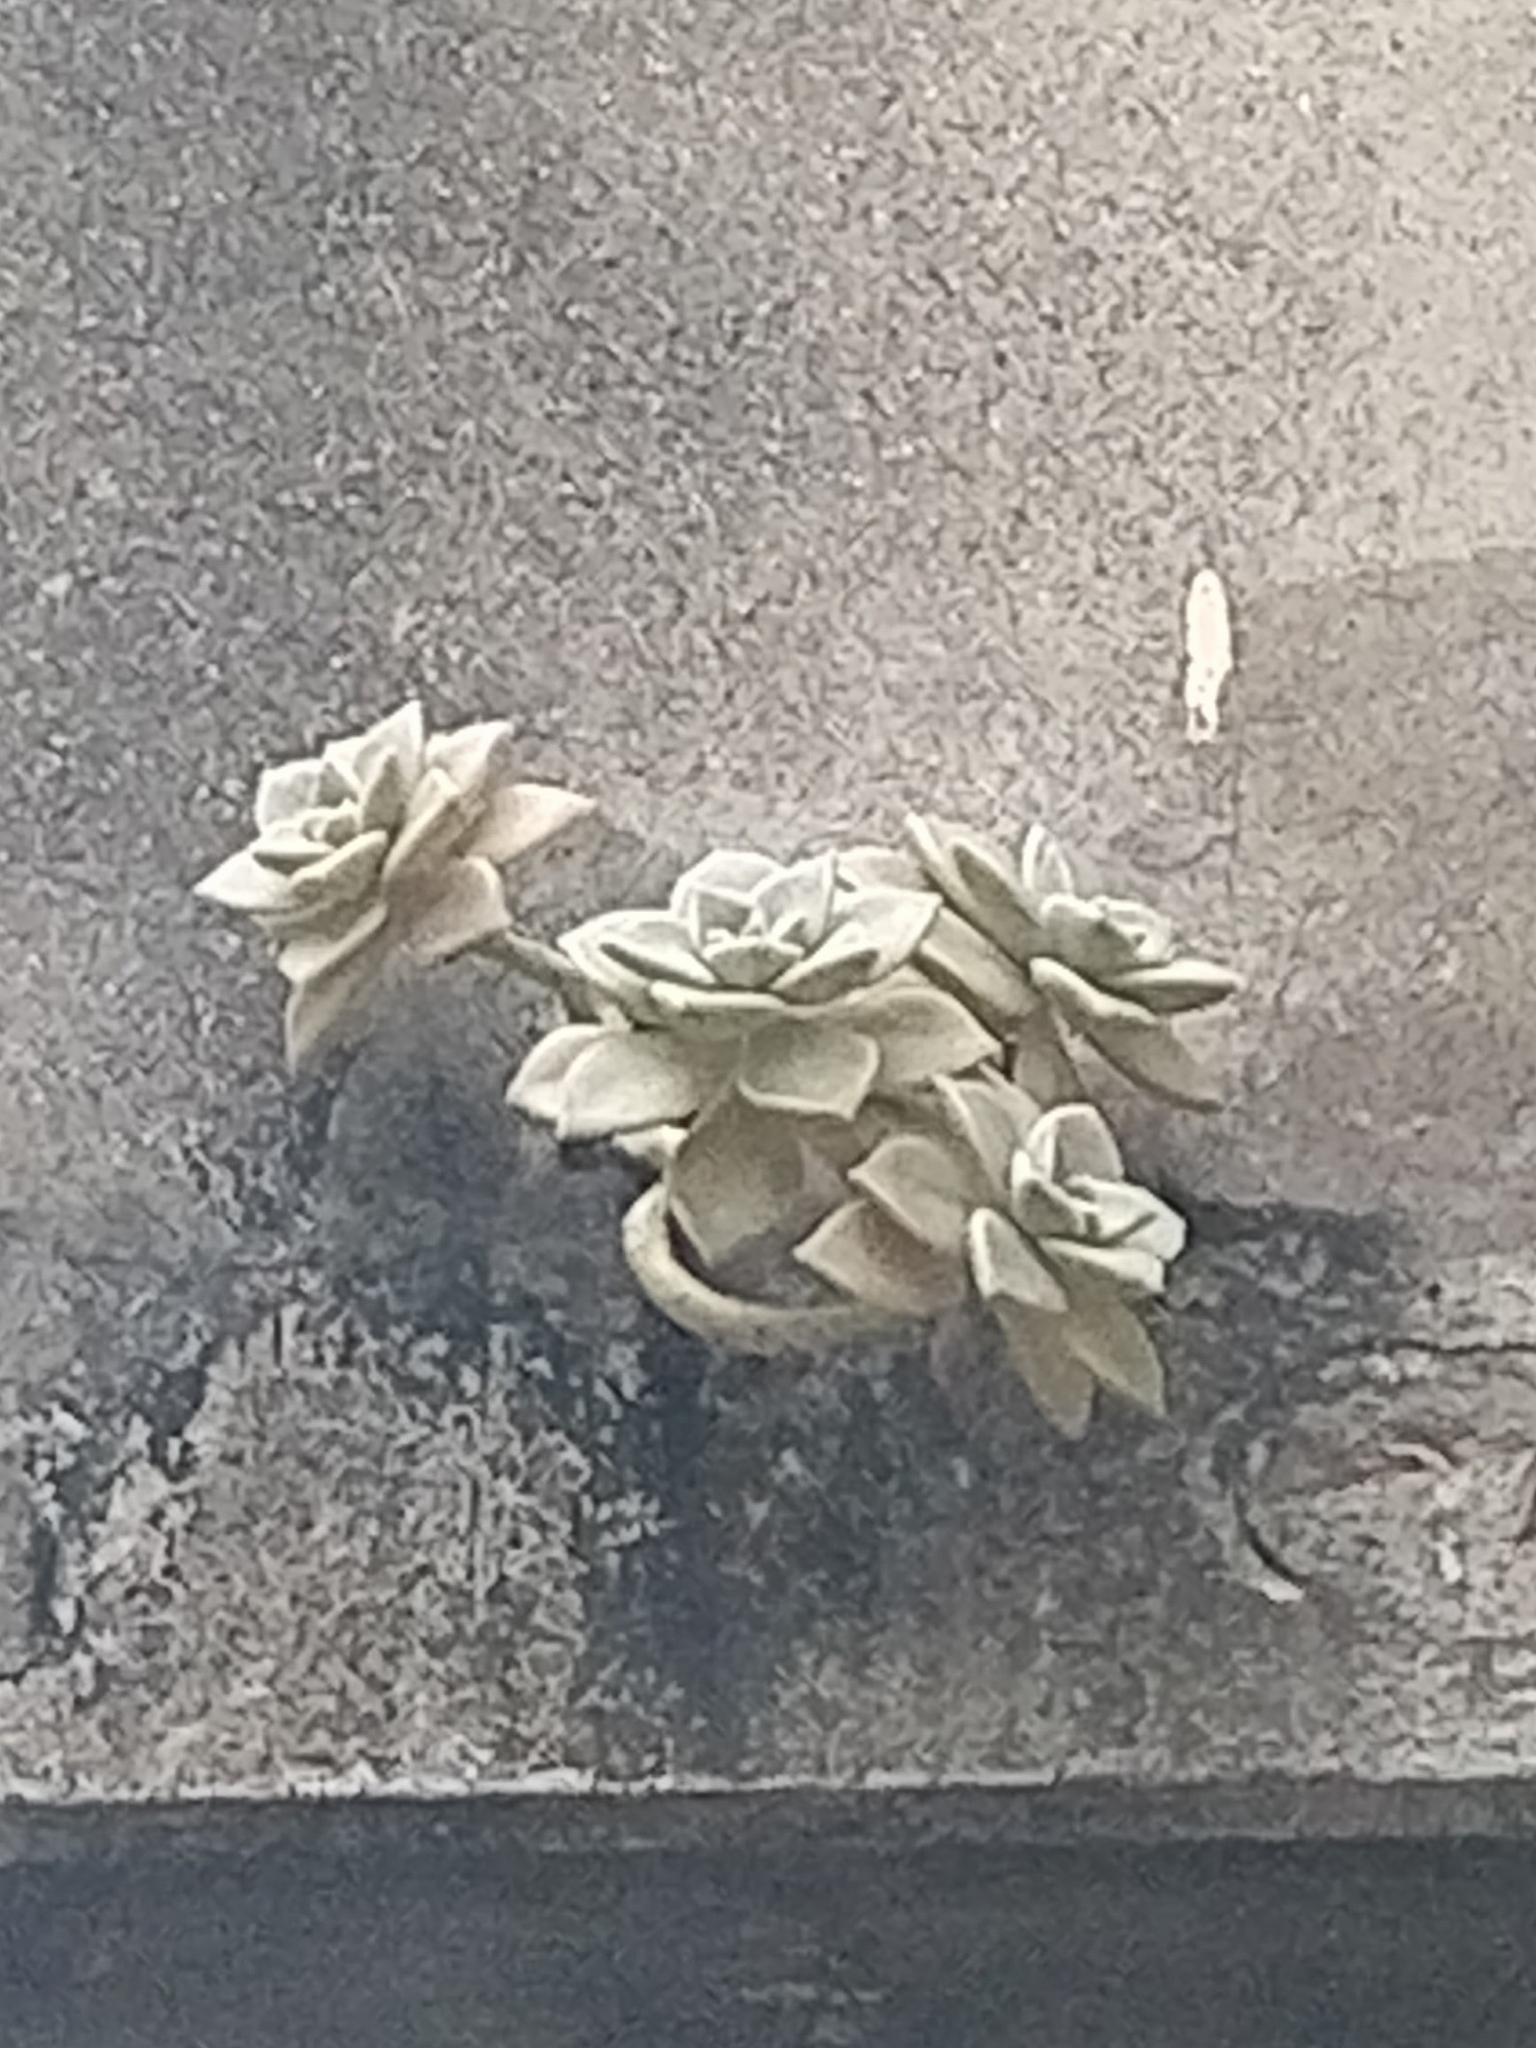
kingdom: Plantae
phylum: Tracheophyta
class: Magnoliopsida
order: Saxifragales
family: Crassulaceae
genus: Graptopetalum
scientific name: Graptopetalum paraguayense
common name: Mother-of-pearl-plant
